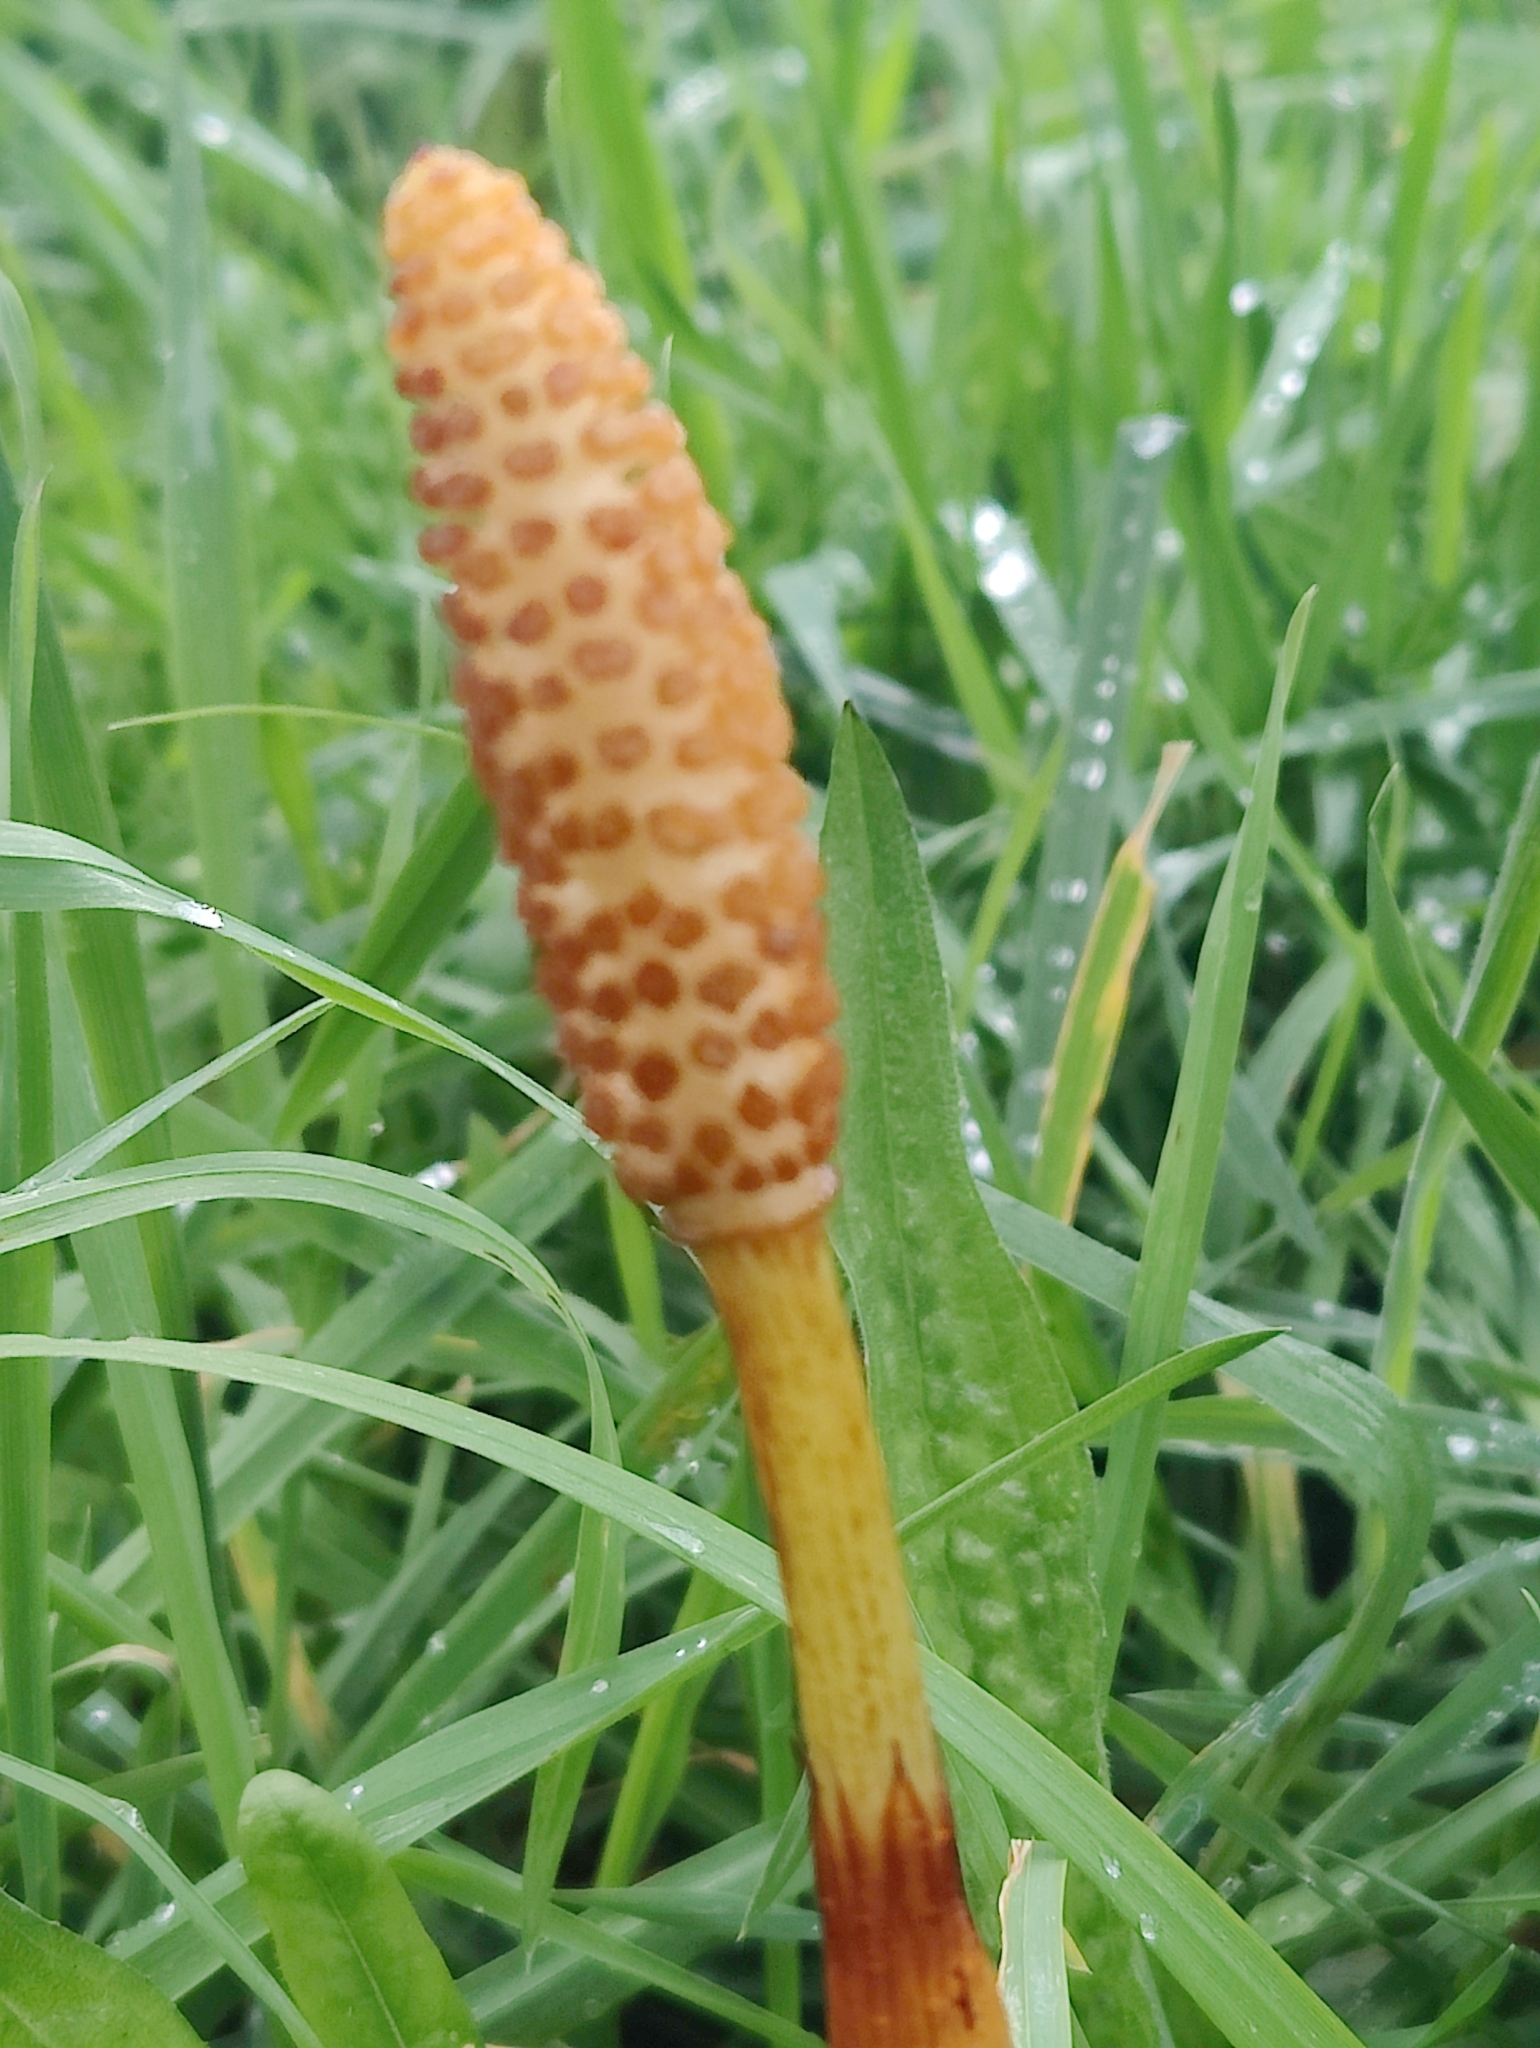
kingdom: Plantae
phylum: Tracheophyta
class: Polypodiopsida
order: Equisetales
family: Equisetaceae
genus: Equisetum
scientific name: Equisetum telmateia
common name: Great horsetail
